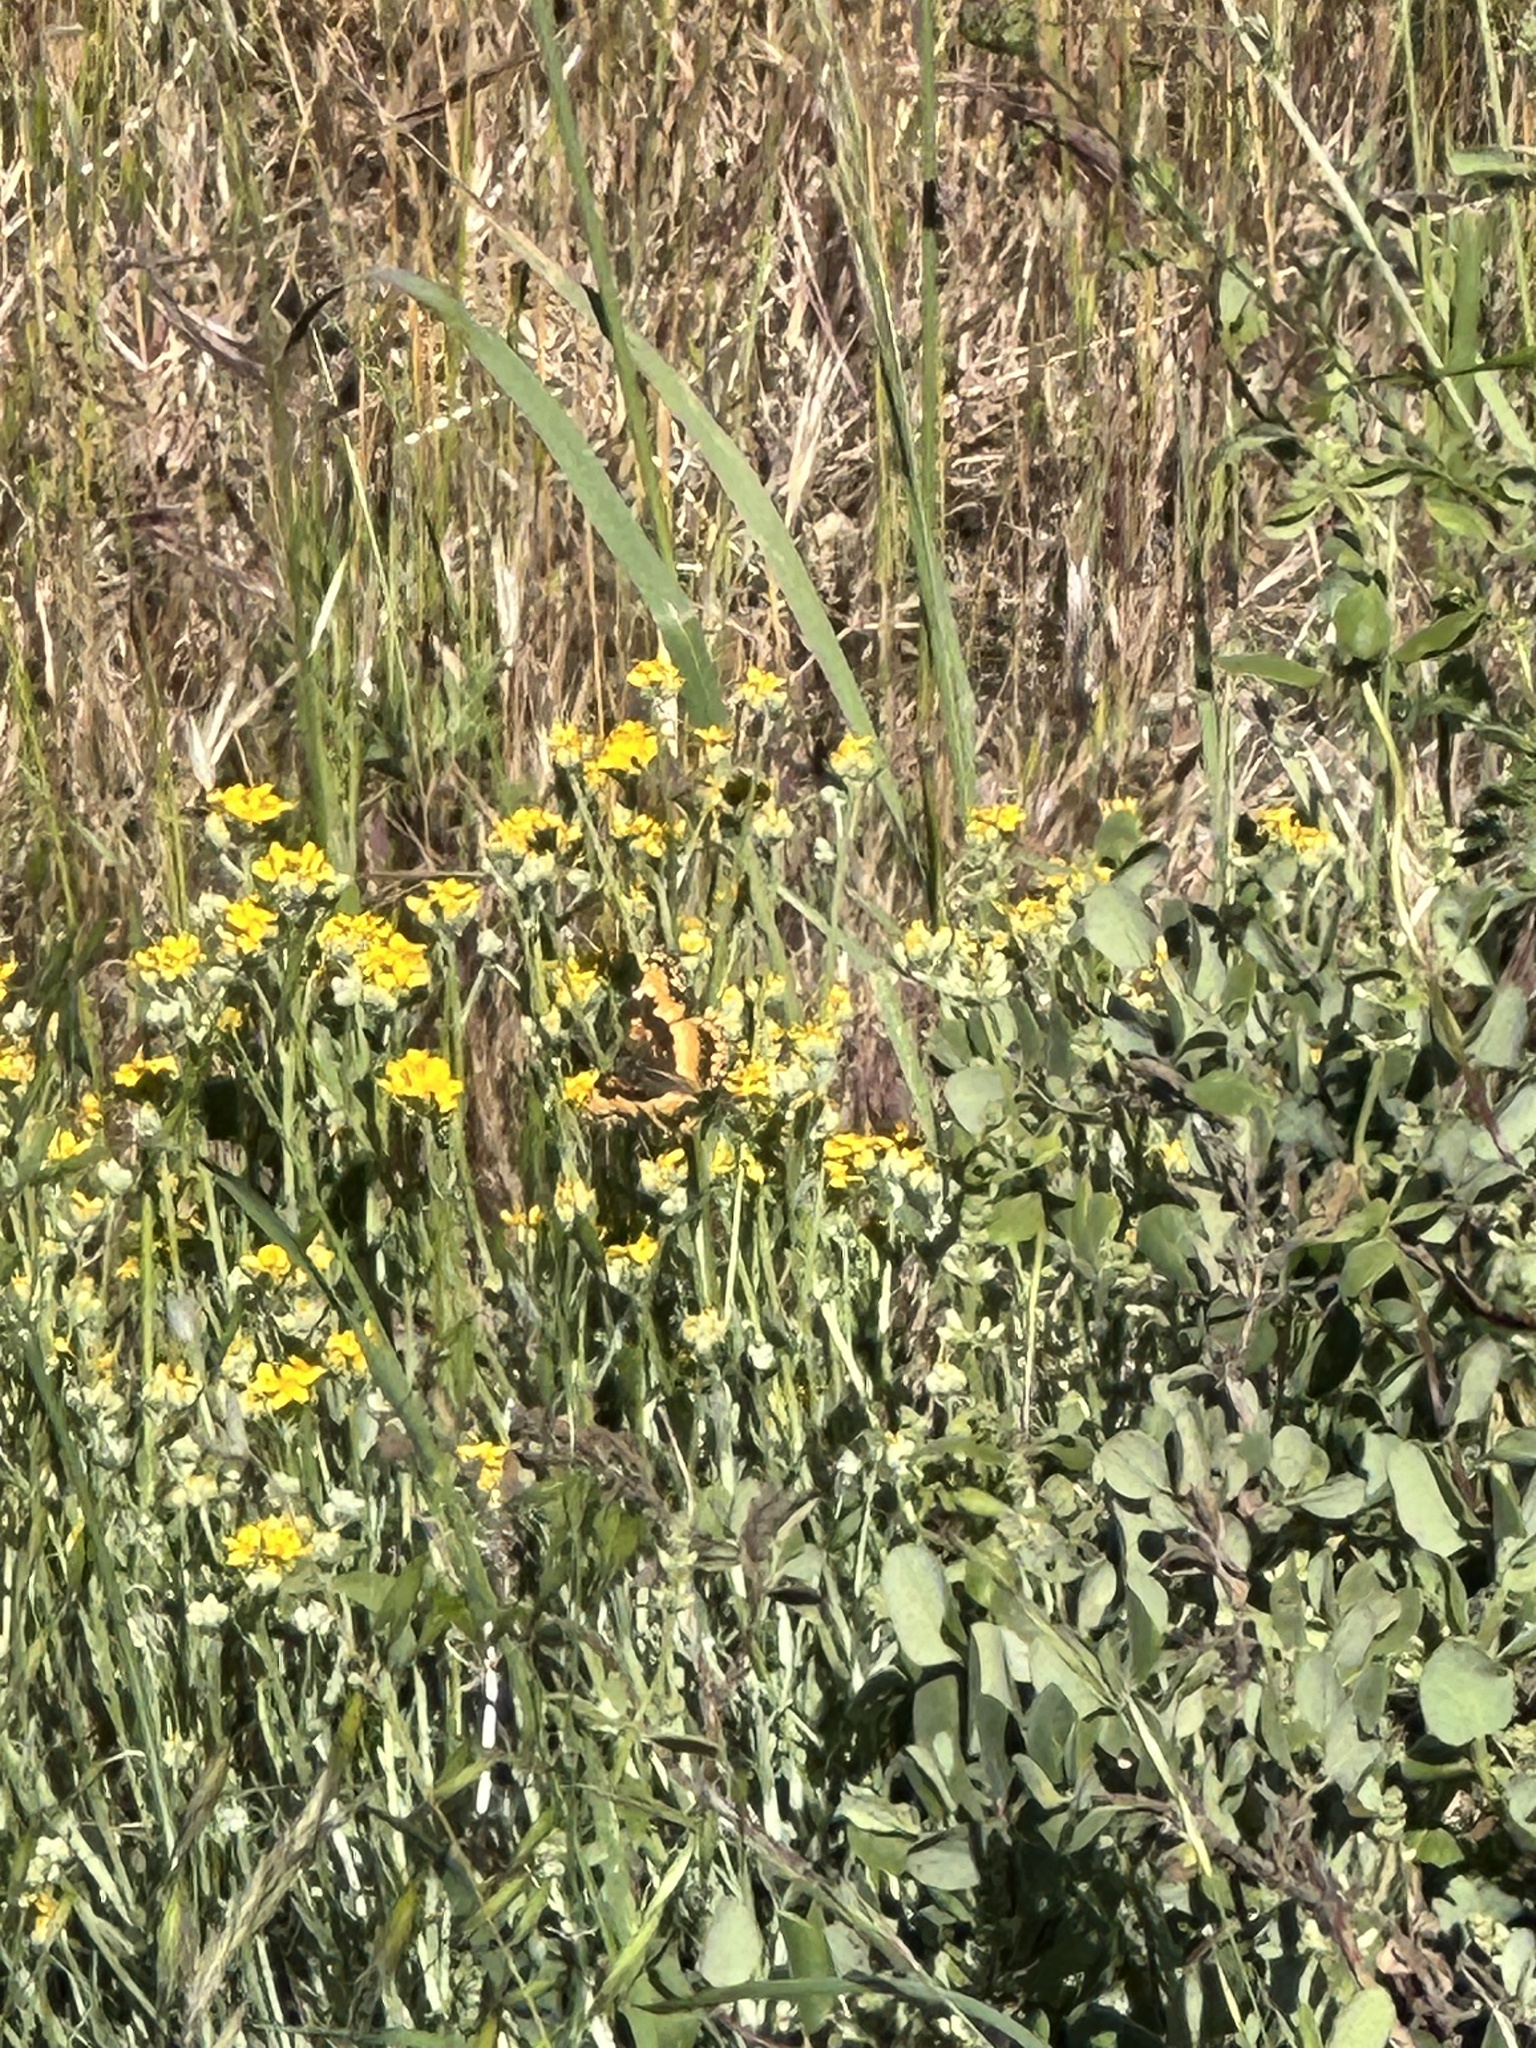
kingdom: Animalia
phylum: Arthropoda
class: Insecta
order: Lepidoptera
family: Nymphalidae
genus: Chlosyne
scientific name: Chlosyne californica
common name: California patch
